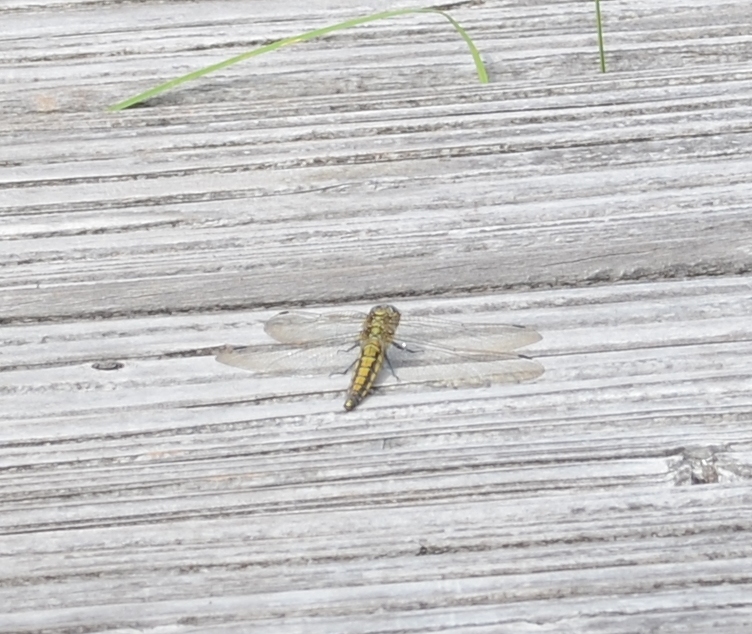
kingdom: Animalia
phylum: Arthropoda
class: Insecta
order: Odonata
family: Libellulidae
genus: Orthetrum
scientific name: Orthetrum cancellatum
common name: Black-tailed skimmer
